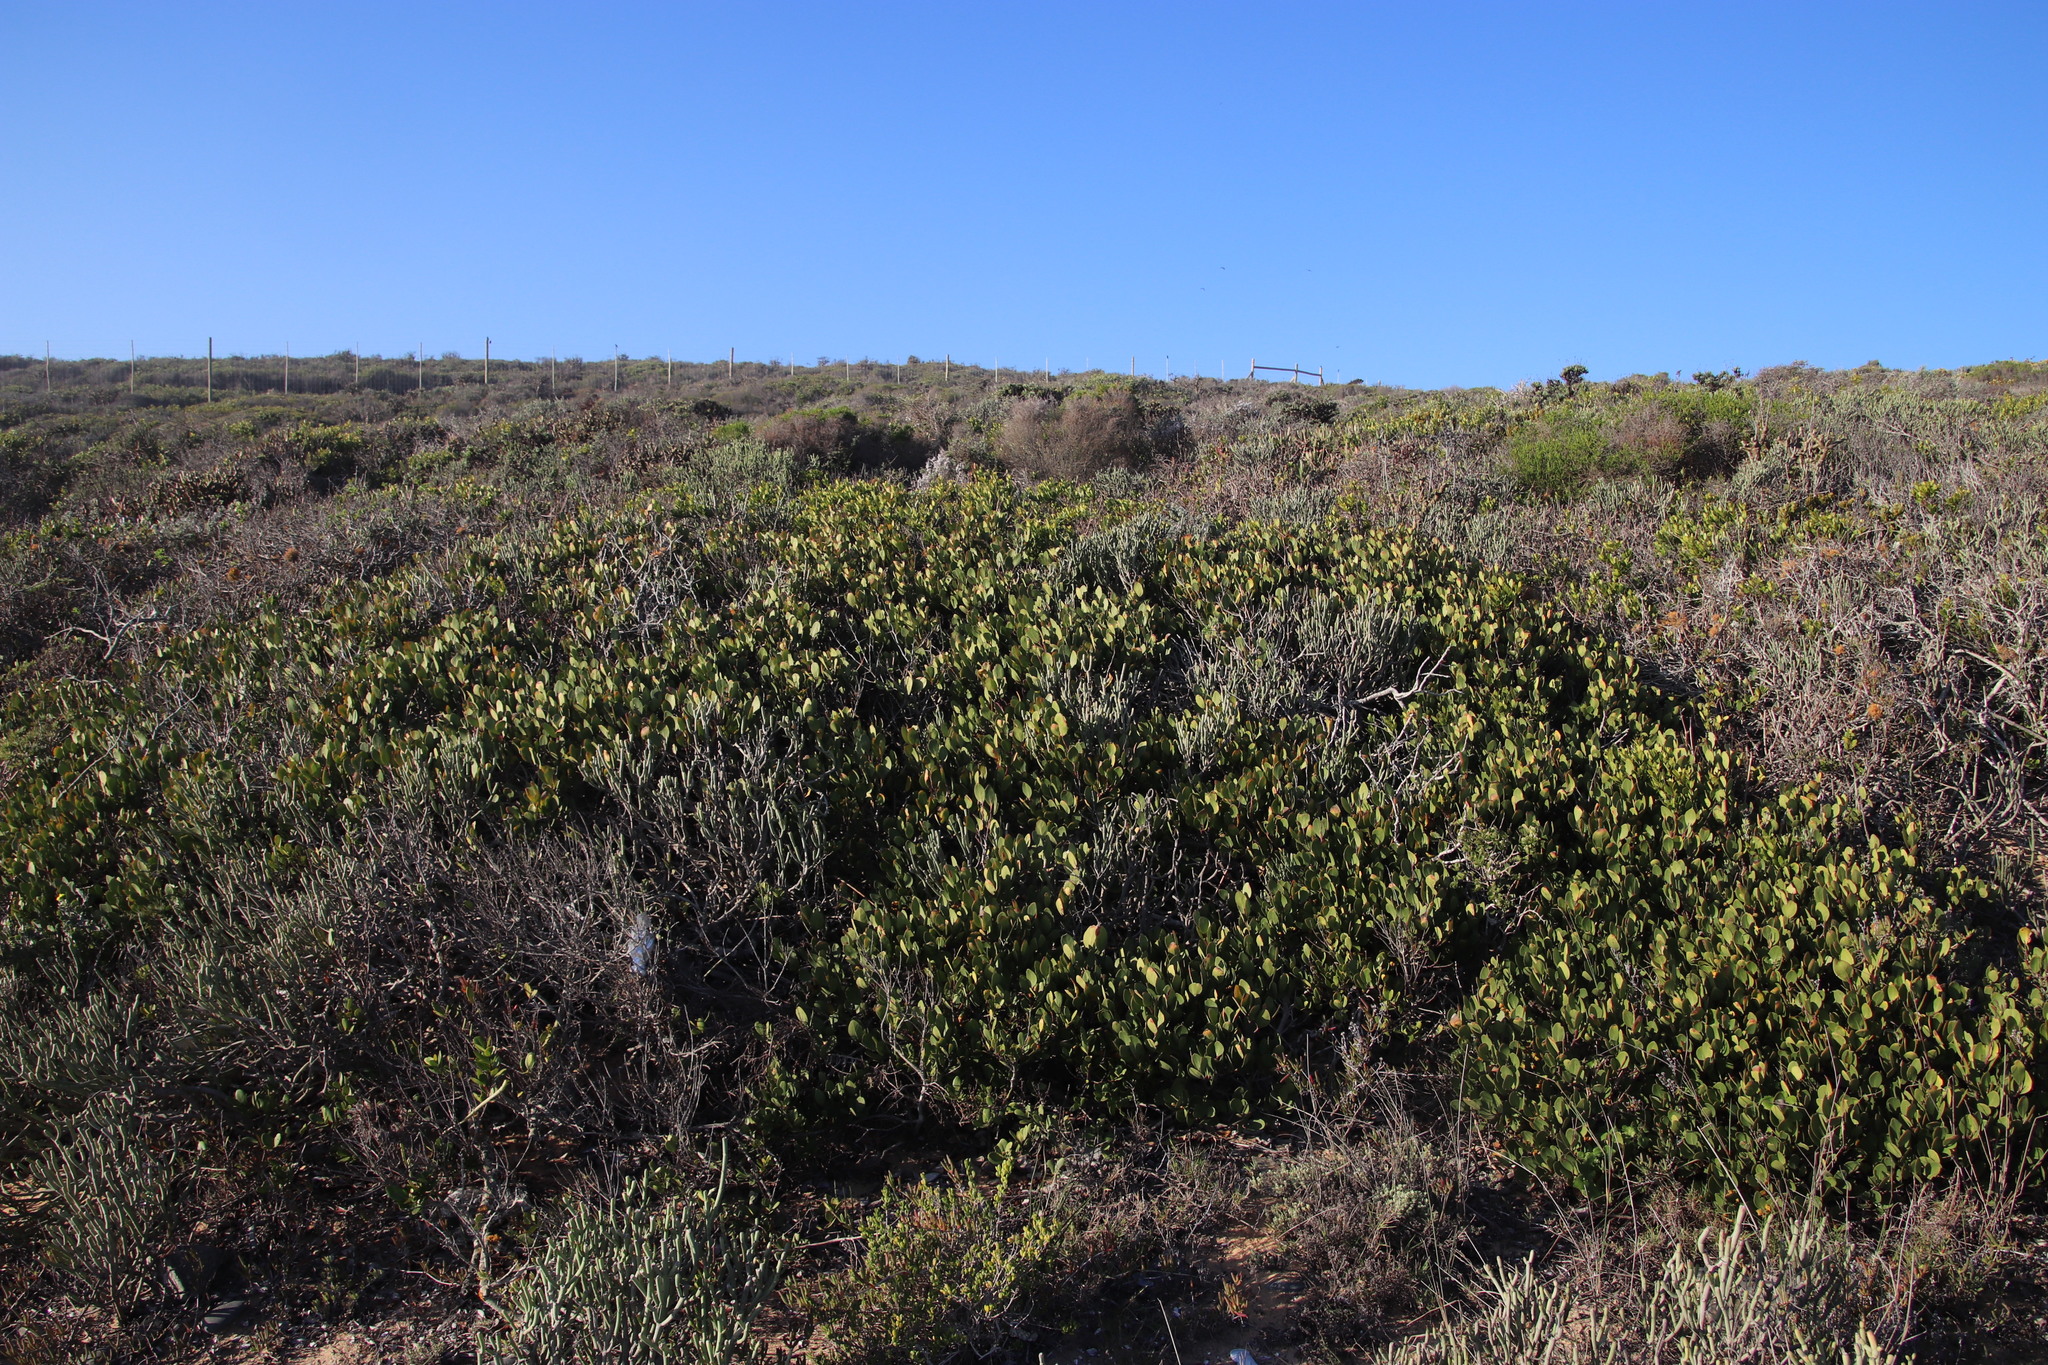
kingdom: Plantae
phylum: Tracheophyta
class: Magnoliopsida
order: Saxifragales
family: Crassulaceae
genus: Tylecodon
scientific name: Tylecodon paniculatus
